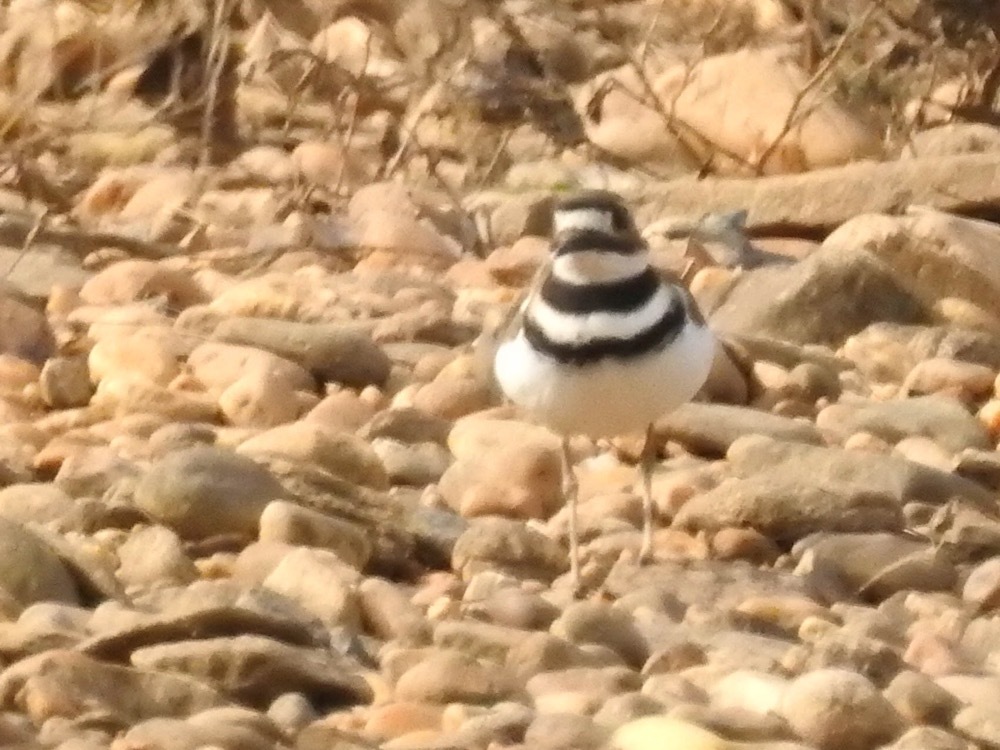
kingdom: Animalia
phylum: Chordata
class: Aves
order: Charadriiformes
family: Charadriidae
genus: Charadrius
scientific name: Charadrius vociferus
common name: Killdeer
